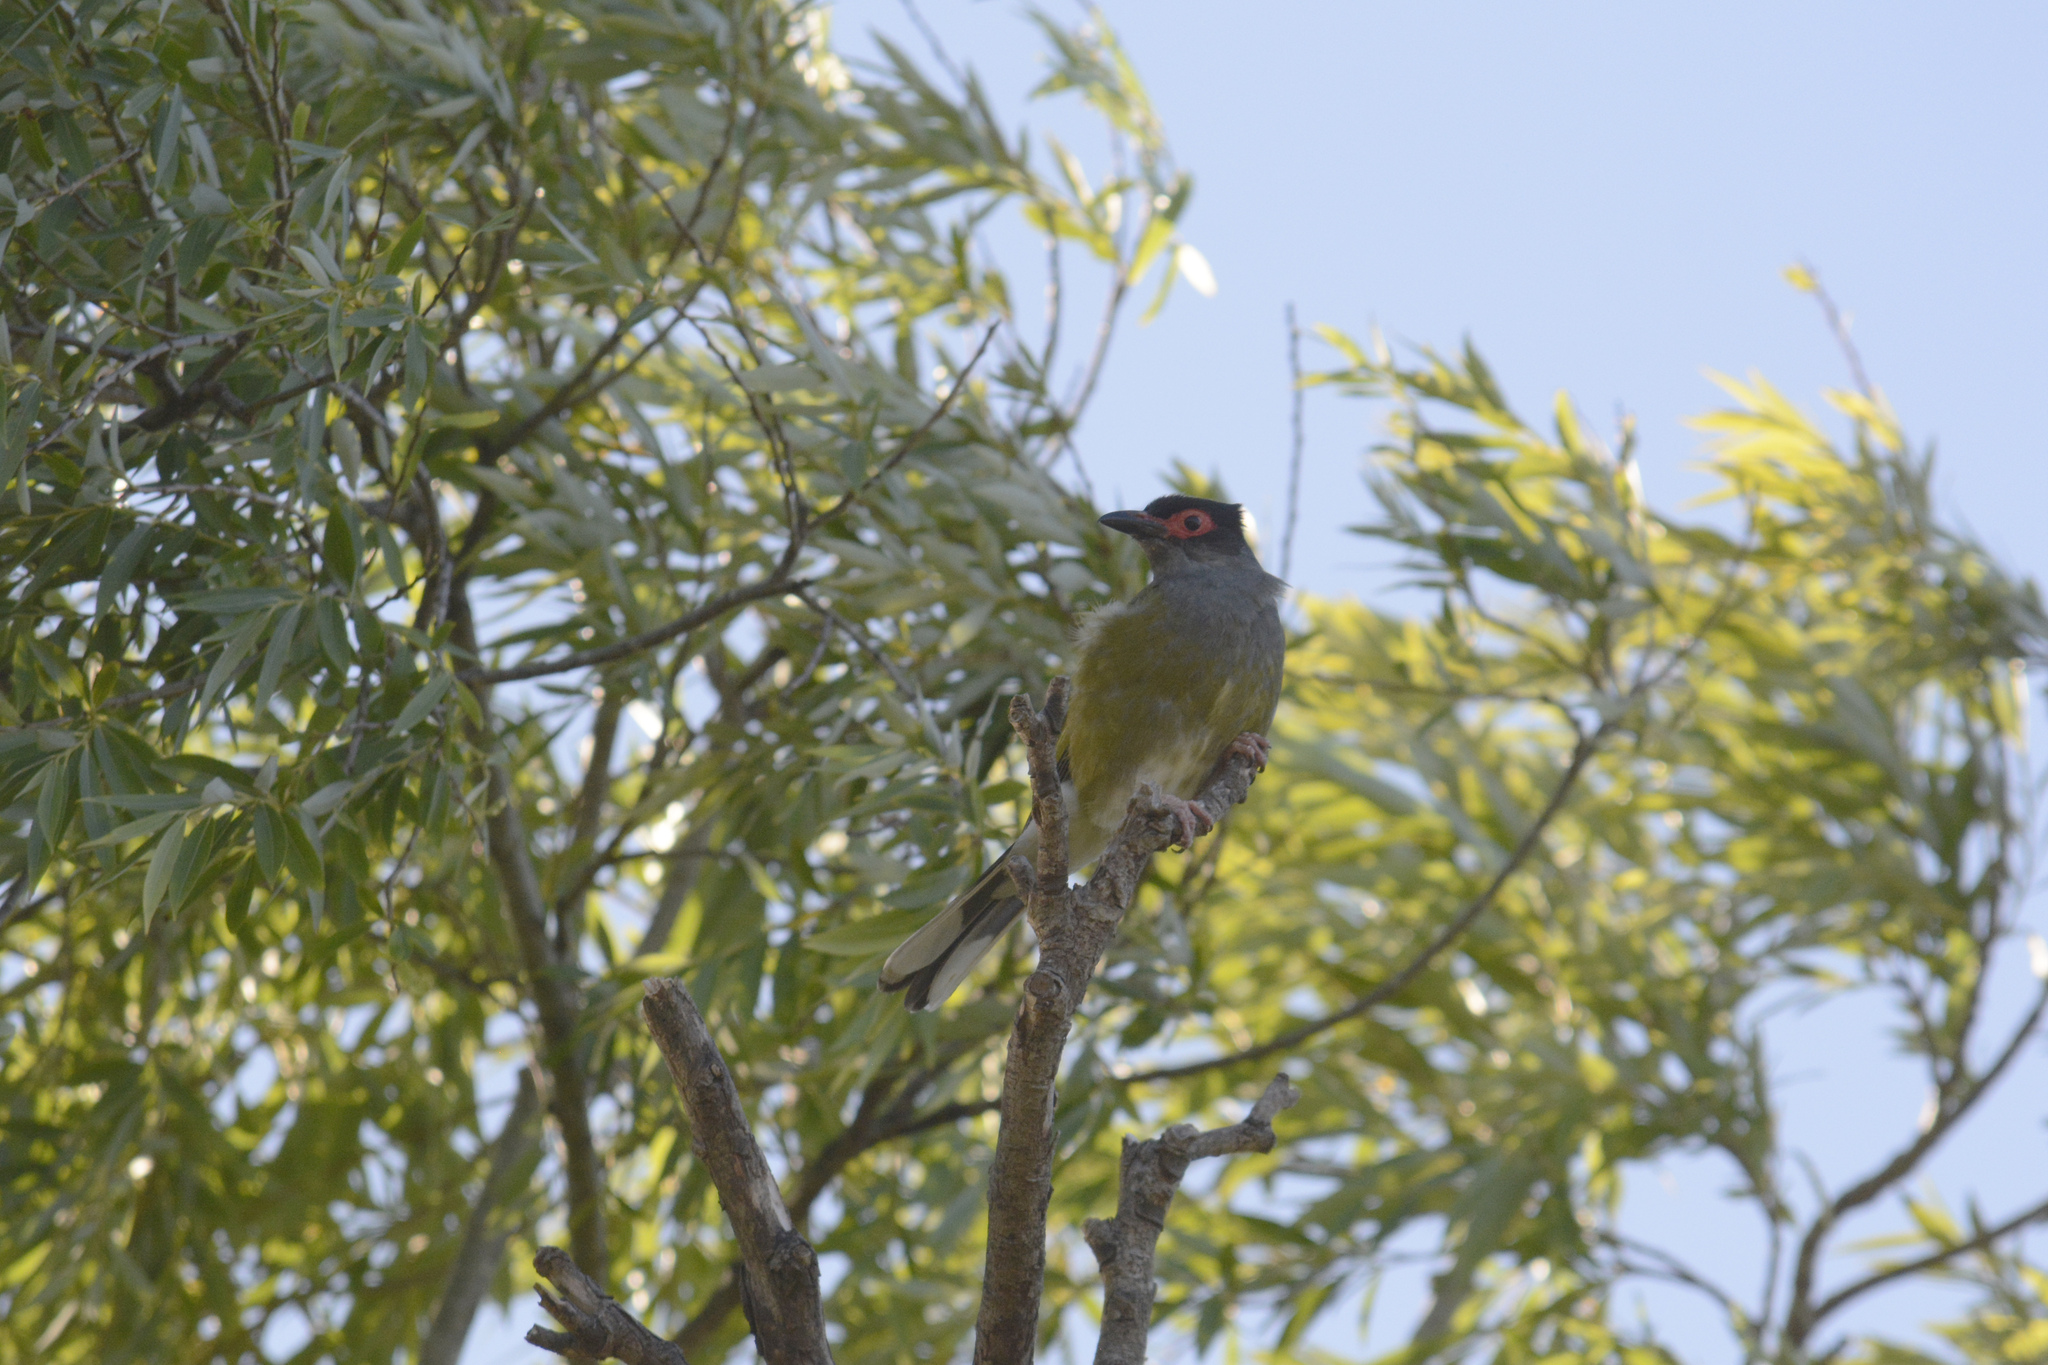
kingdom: Animalia
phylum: Chordata
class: Aves
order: Passeriformes
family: Oriolidae
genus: Sphecotheres
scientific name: Sphecotheres vieilloti
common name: Australasian figbird
